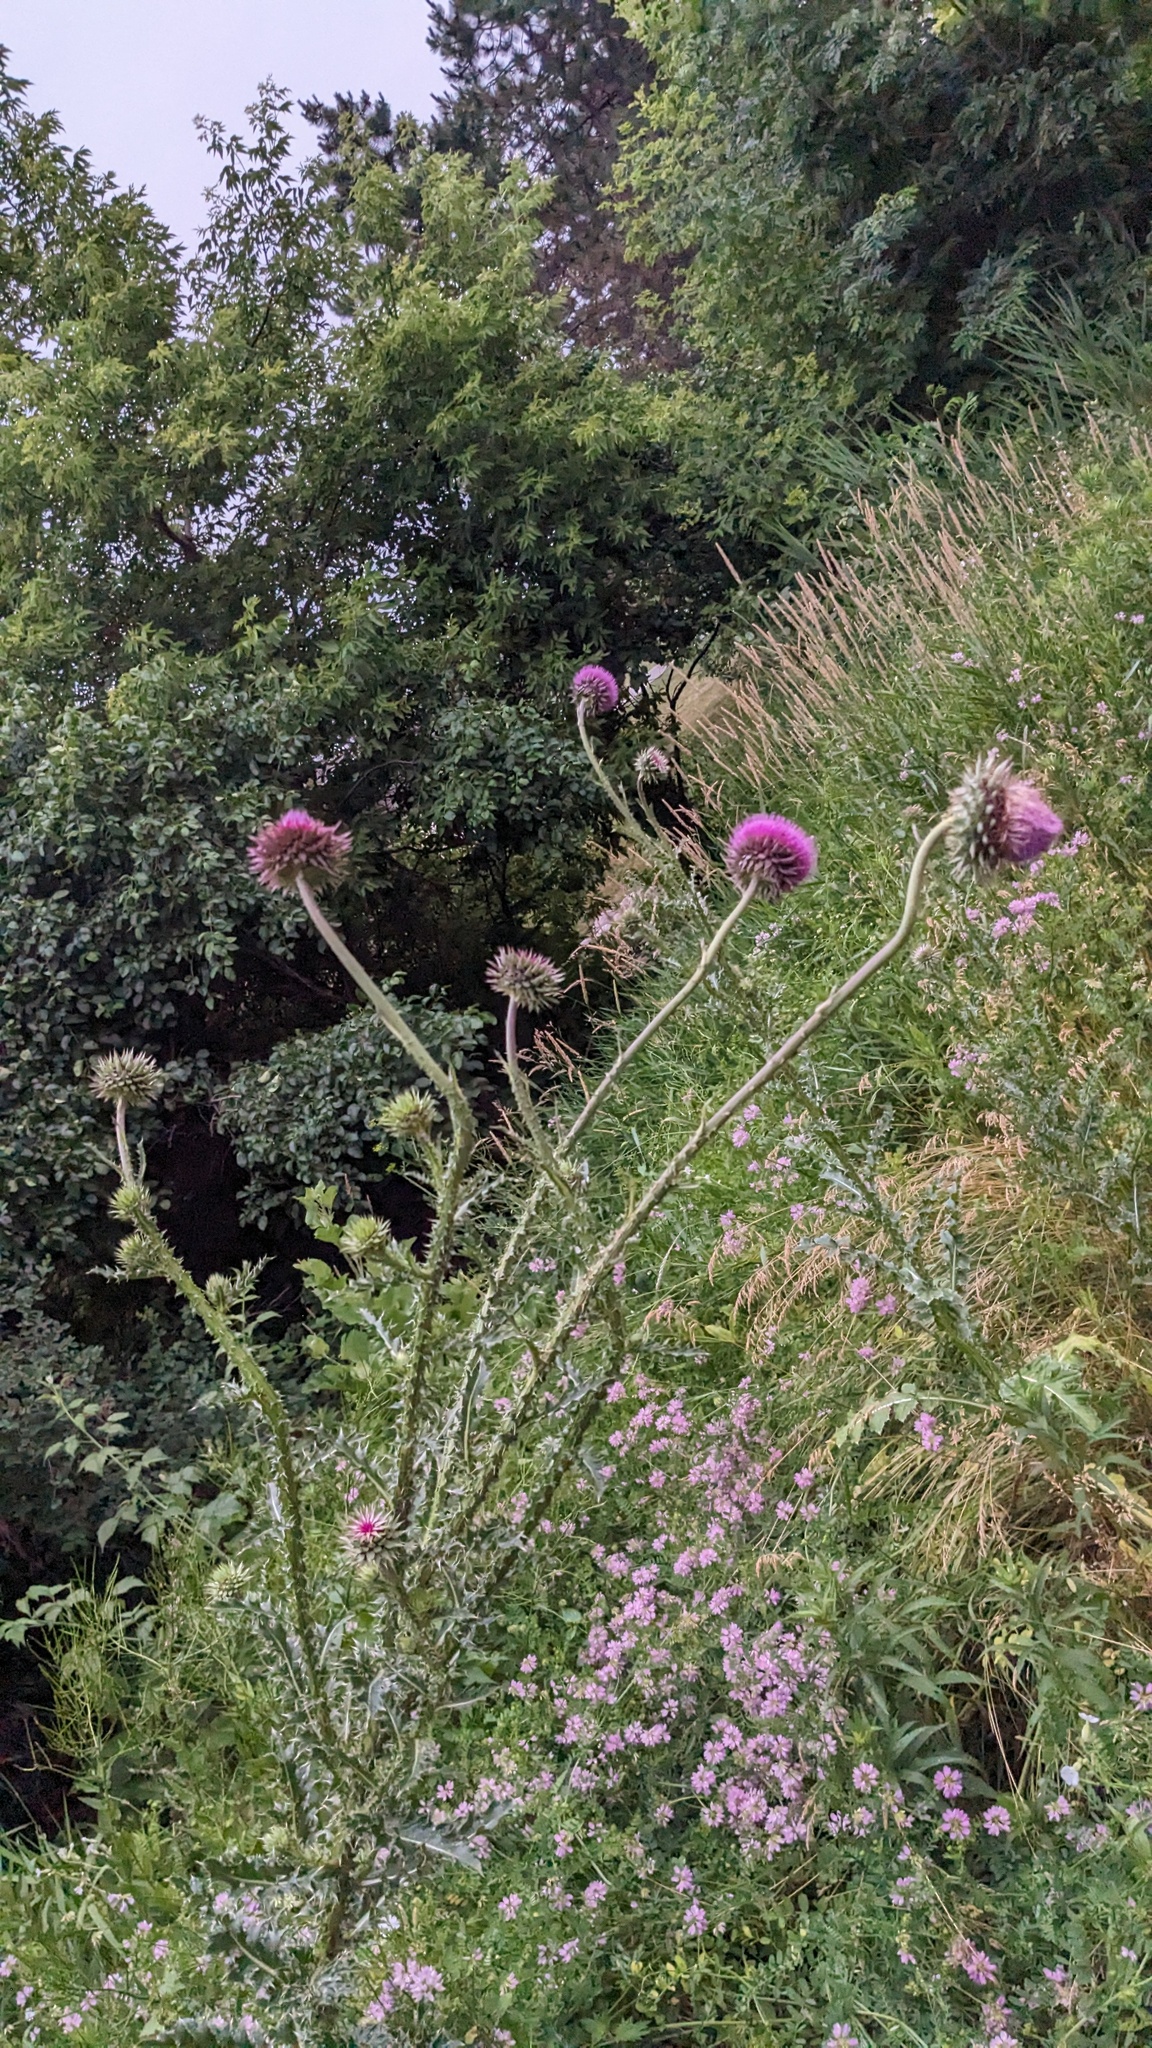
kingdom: Plantae
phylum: Tracheophyta
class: Magnoliopsida
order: Asterales
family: Asteraceae
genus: Carduus
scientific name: Carduus nutans
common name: Musk thistle
